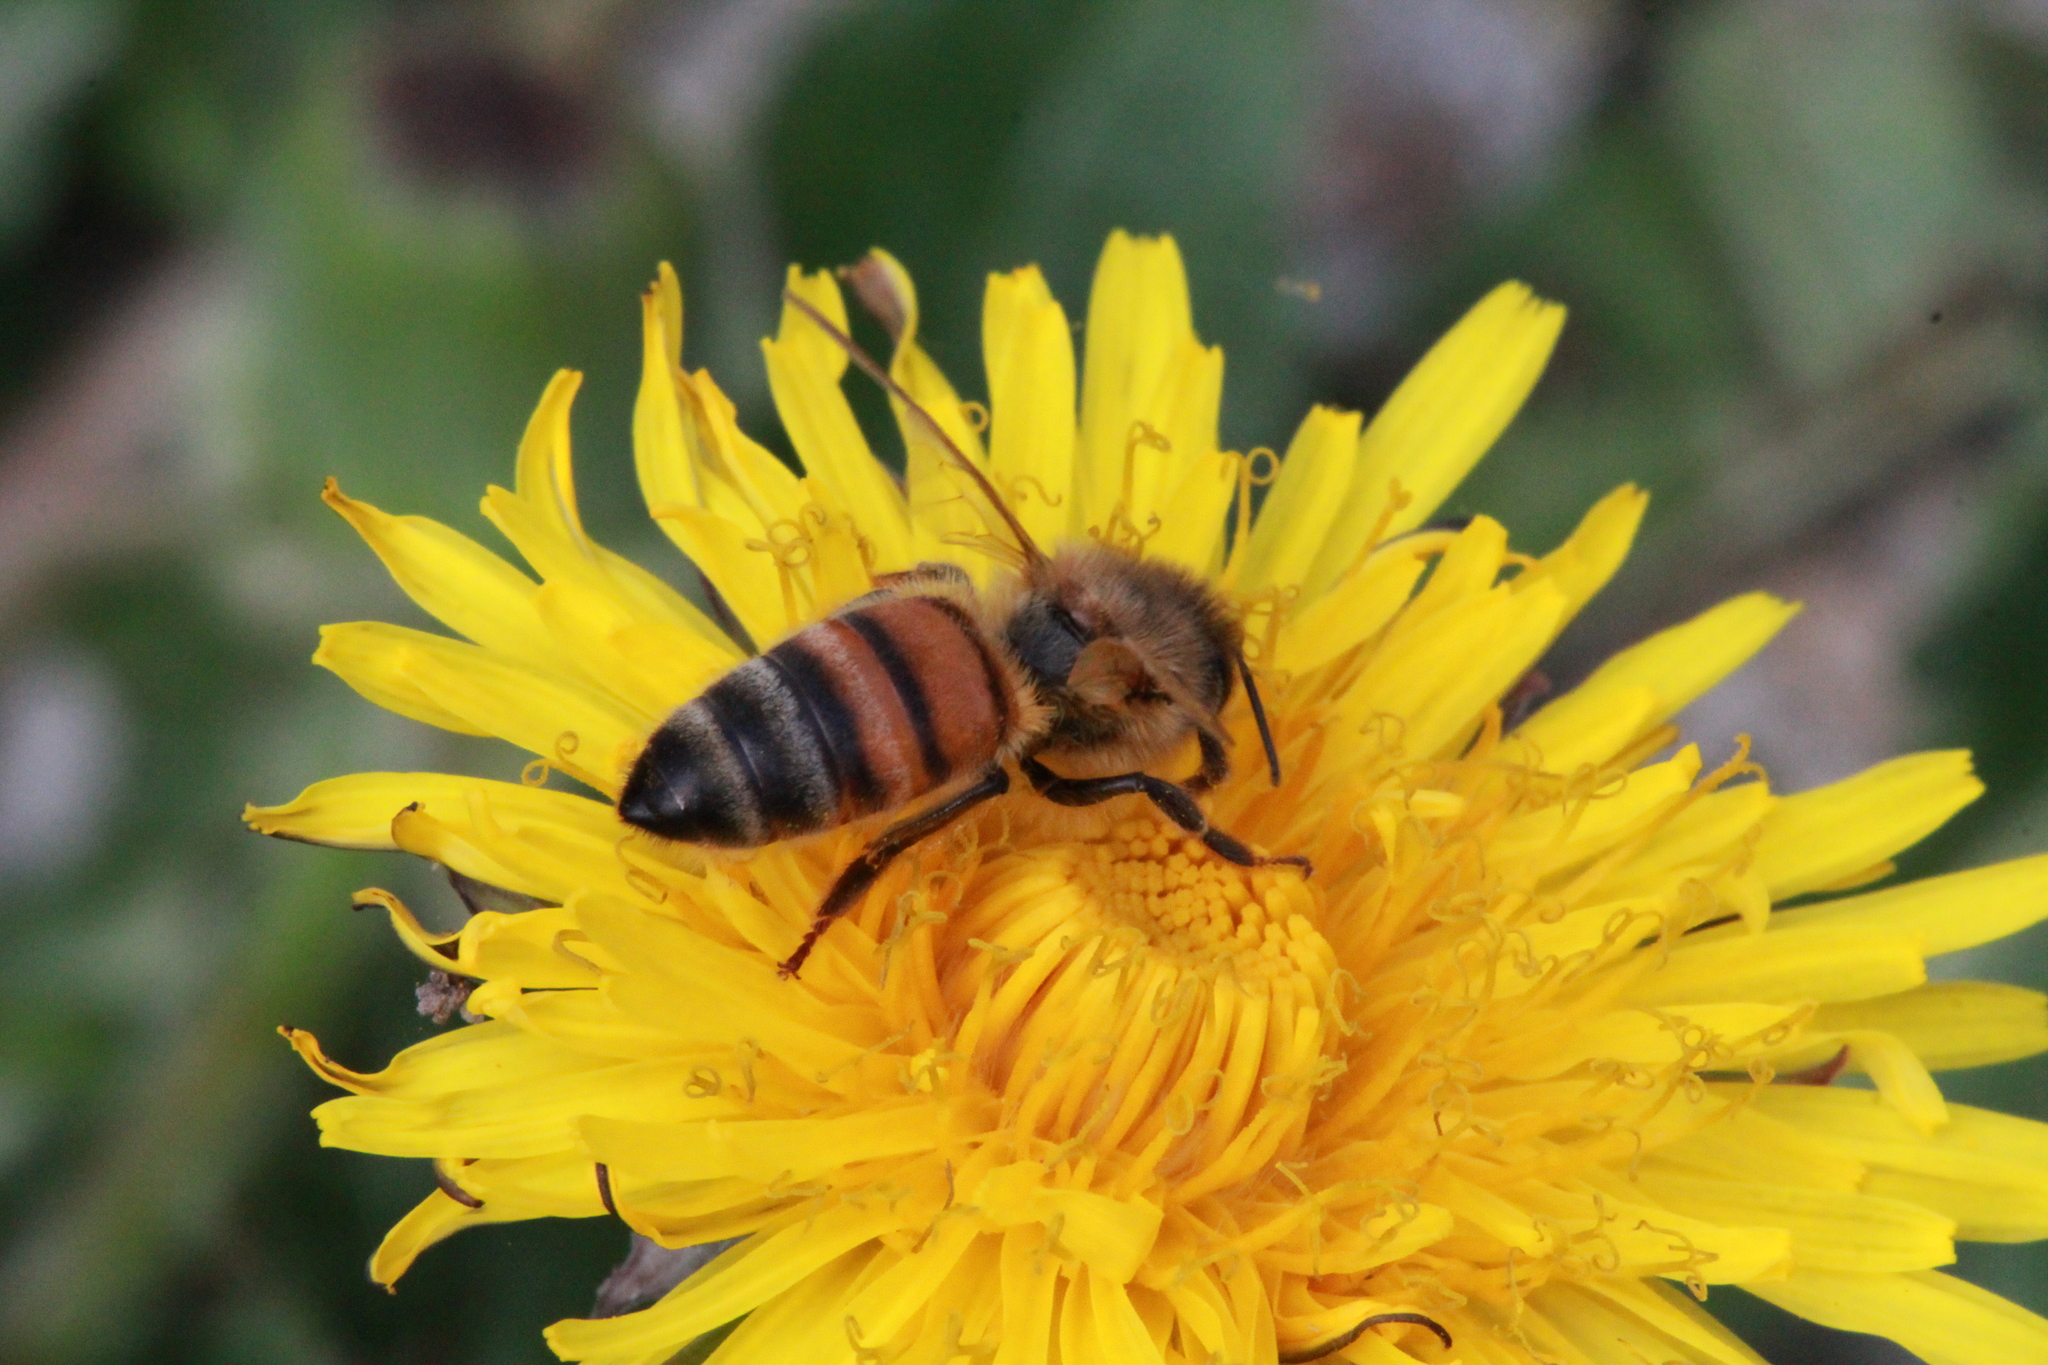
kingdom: Animalia
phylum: Arthropoda
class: Insecta
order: Hymenoptera
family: Apidae
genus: Apis
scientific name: Apis mellifera
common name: Honey bee
